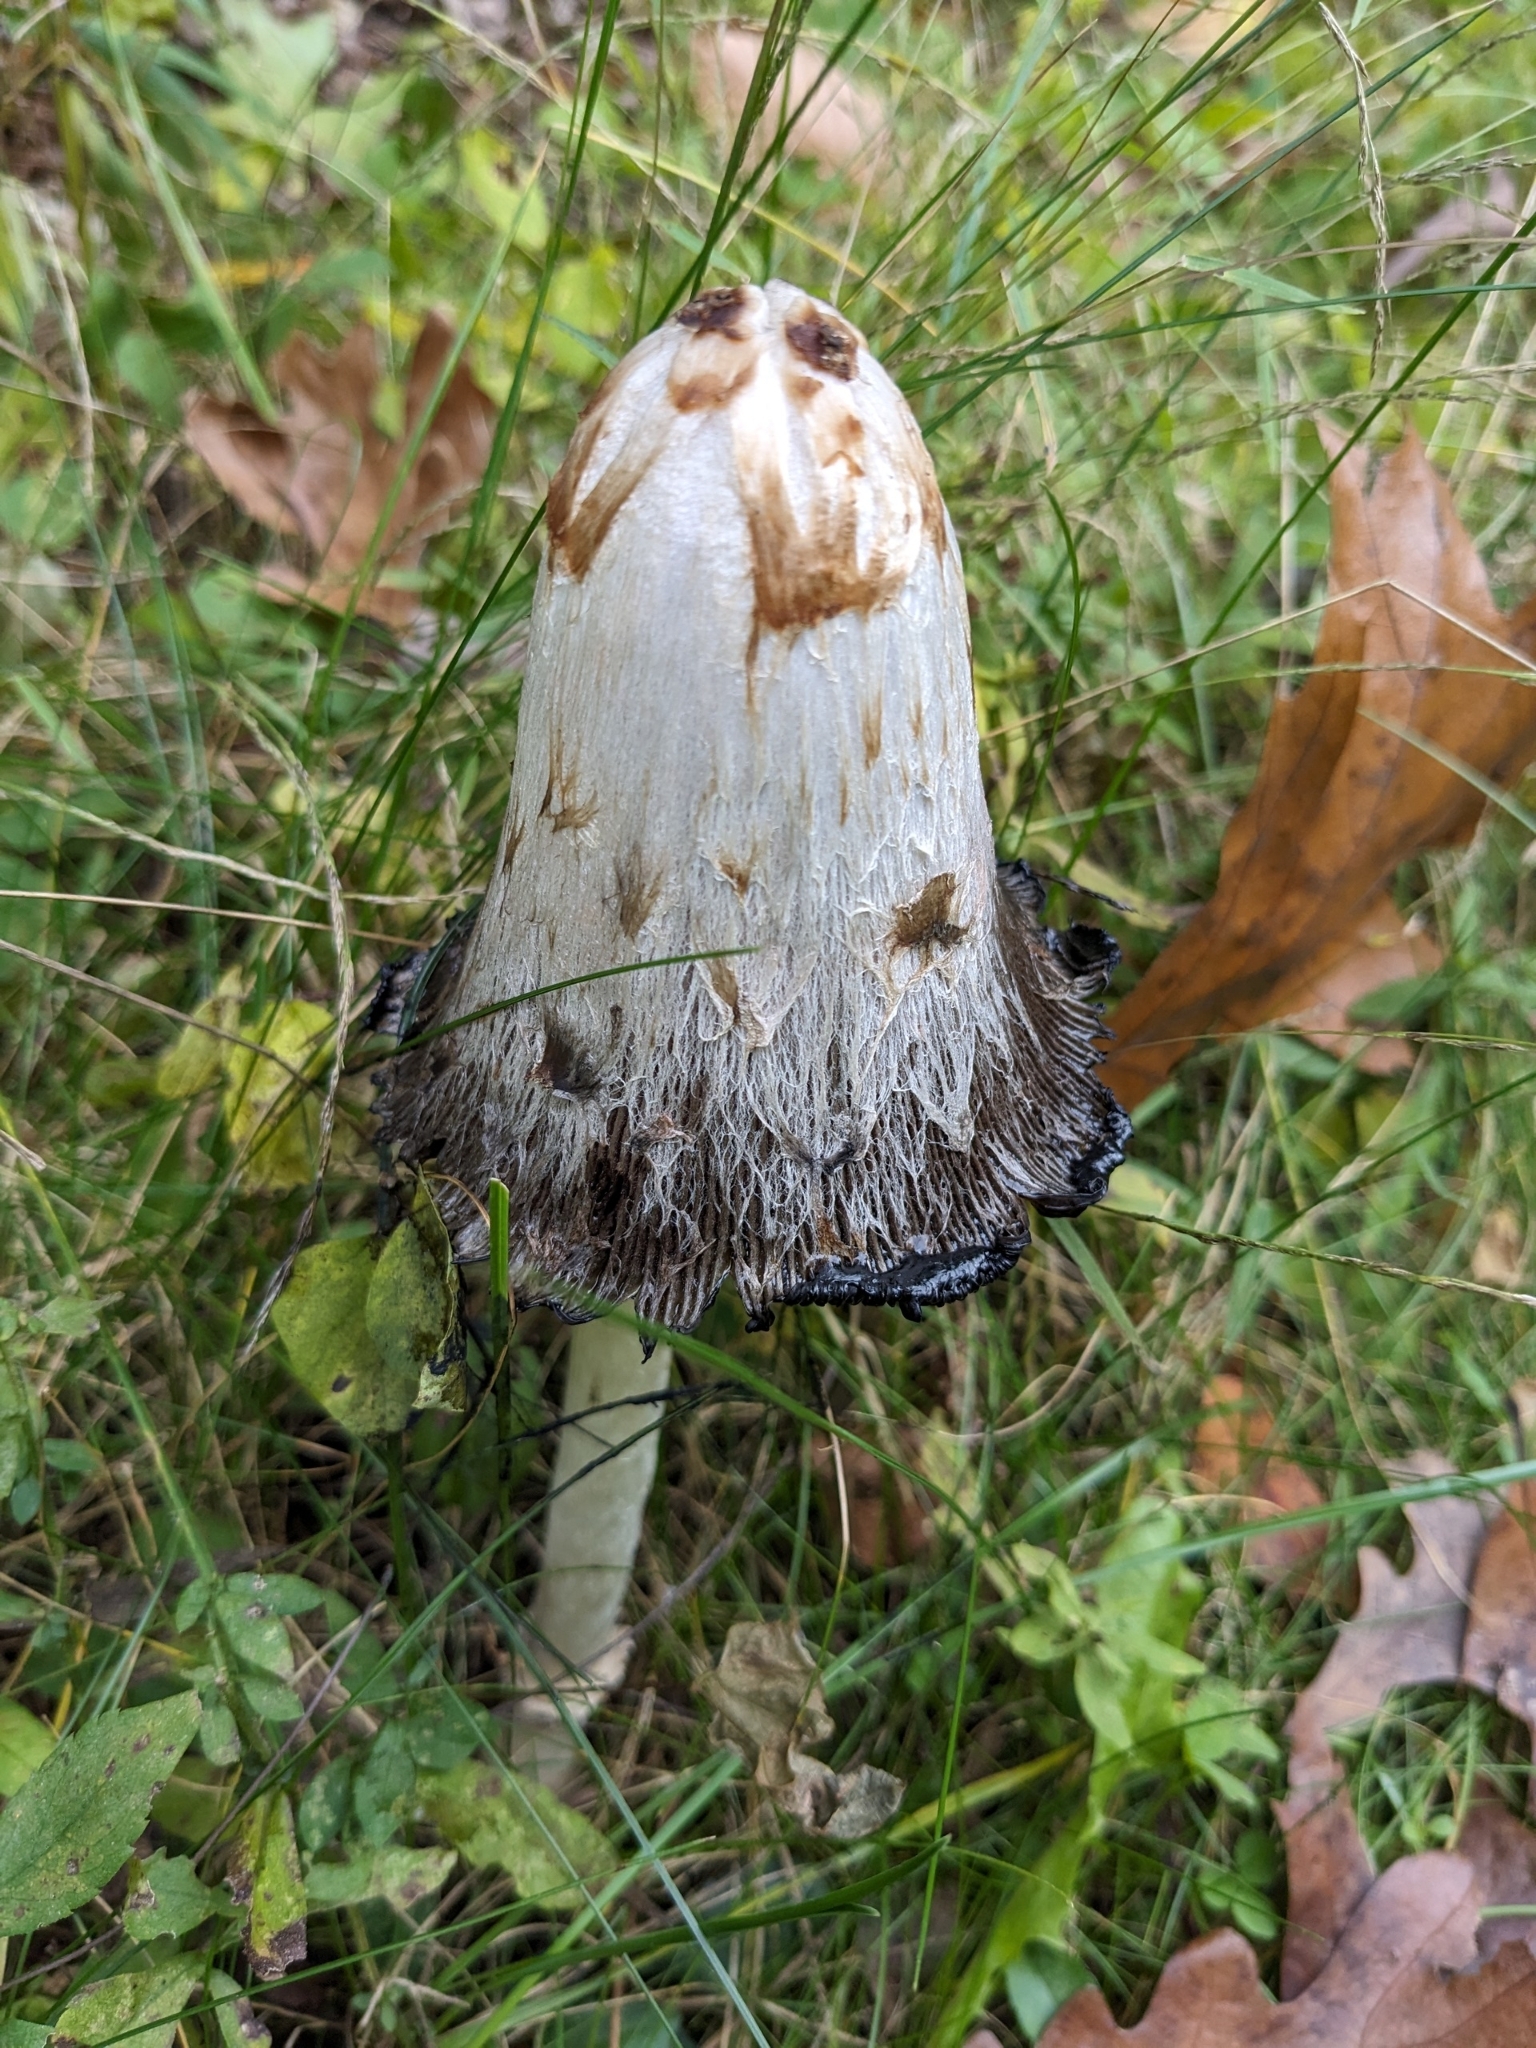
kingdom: Fungi
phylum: Basidiomycota
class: Agaricomycetes
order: Agaricales
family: Agaricaceae
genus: Coprinus
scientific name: Coprinus comatus
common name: Lawyer's wig
